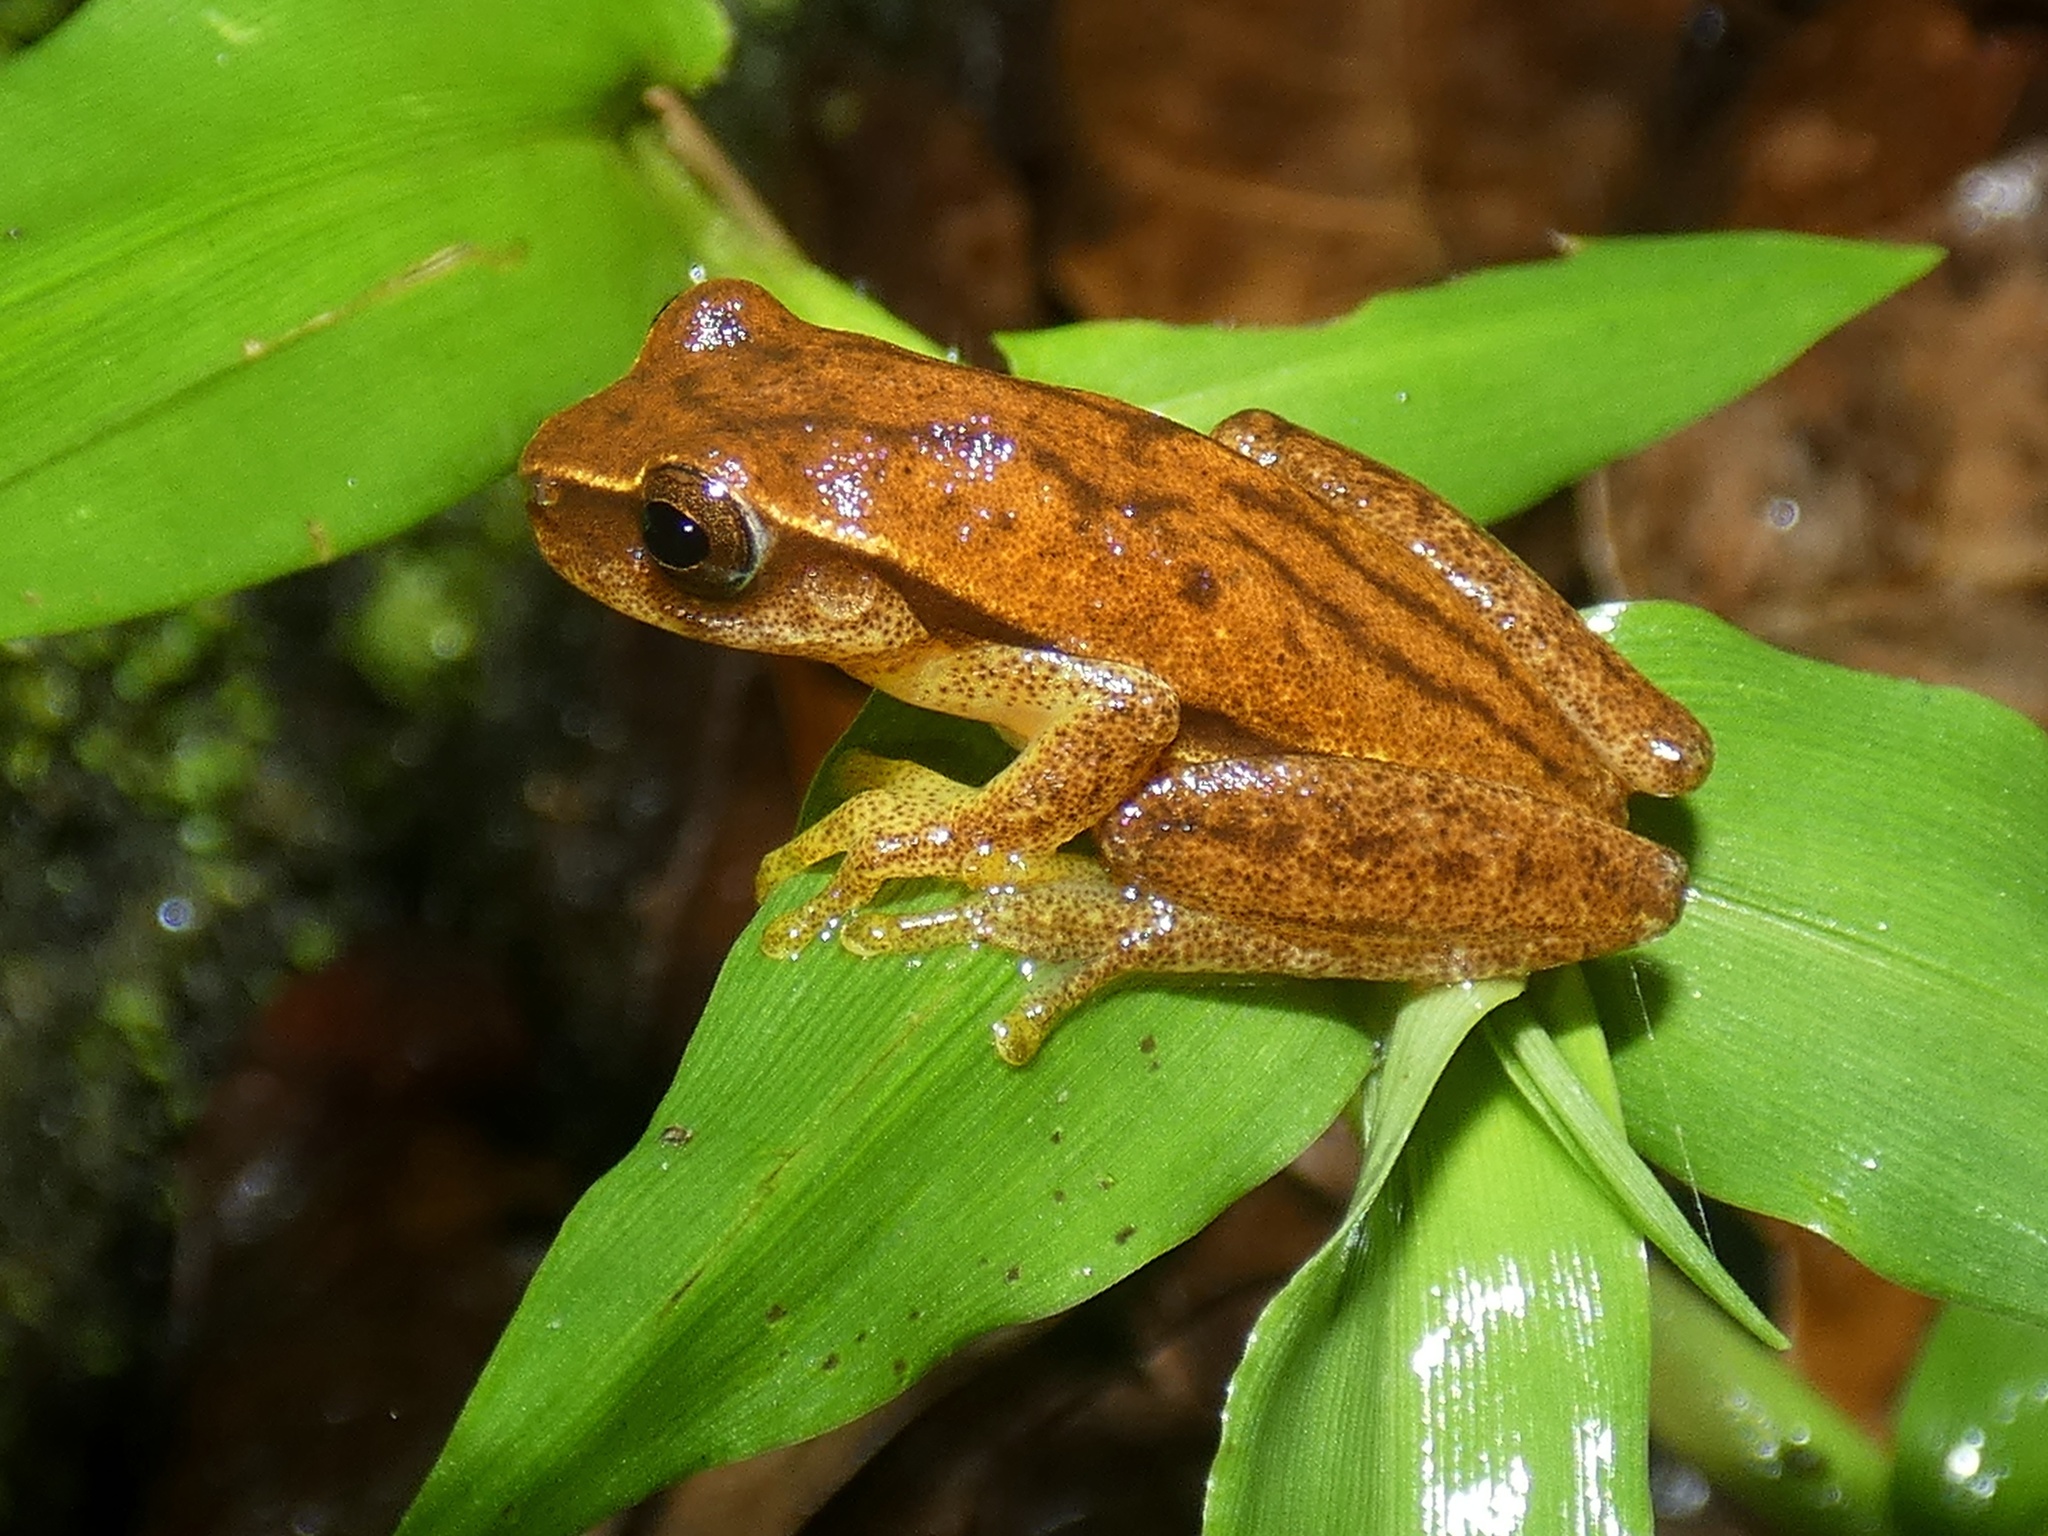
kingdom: Animalia
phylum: Chordata
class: Amphibia
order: Anura
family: Hylidae
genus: Dendropsophus
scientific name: Dendropsophus microcephalus
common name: Small-headed treefrog
